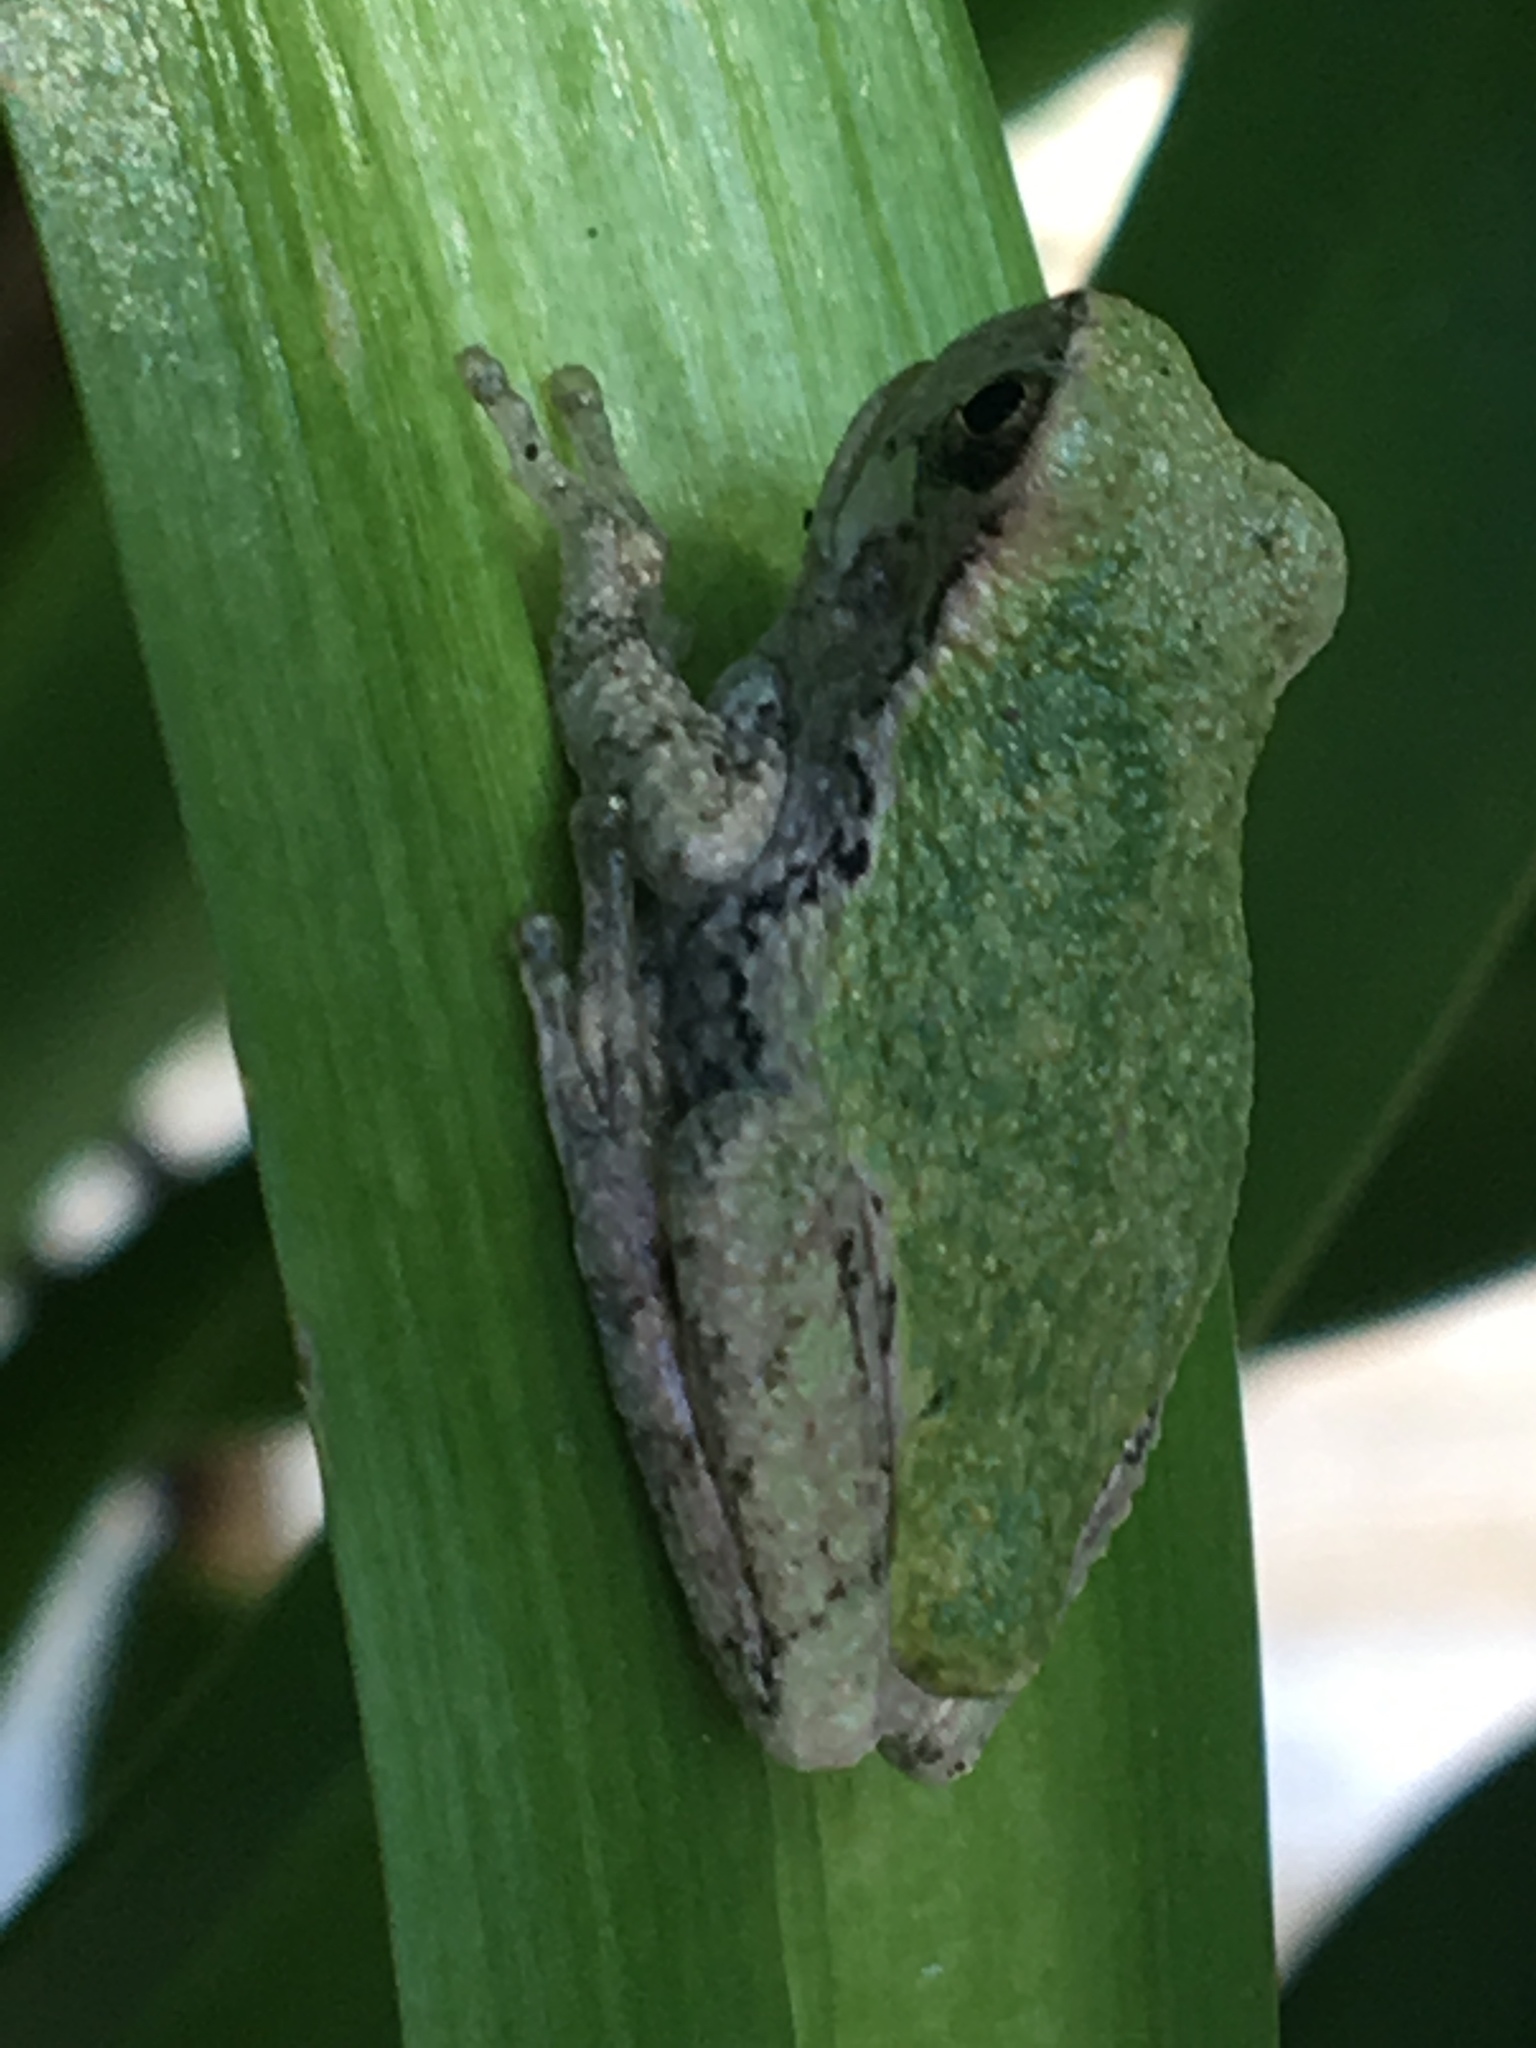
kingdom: Animalia
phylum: Chordata
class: Amphibia
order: Anura
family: Hylidae
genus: Dryophytes
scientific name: Dryophytes versicolor
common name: Gray treefrog
